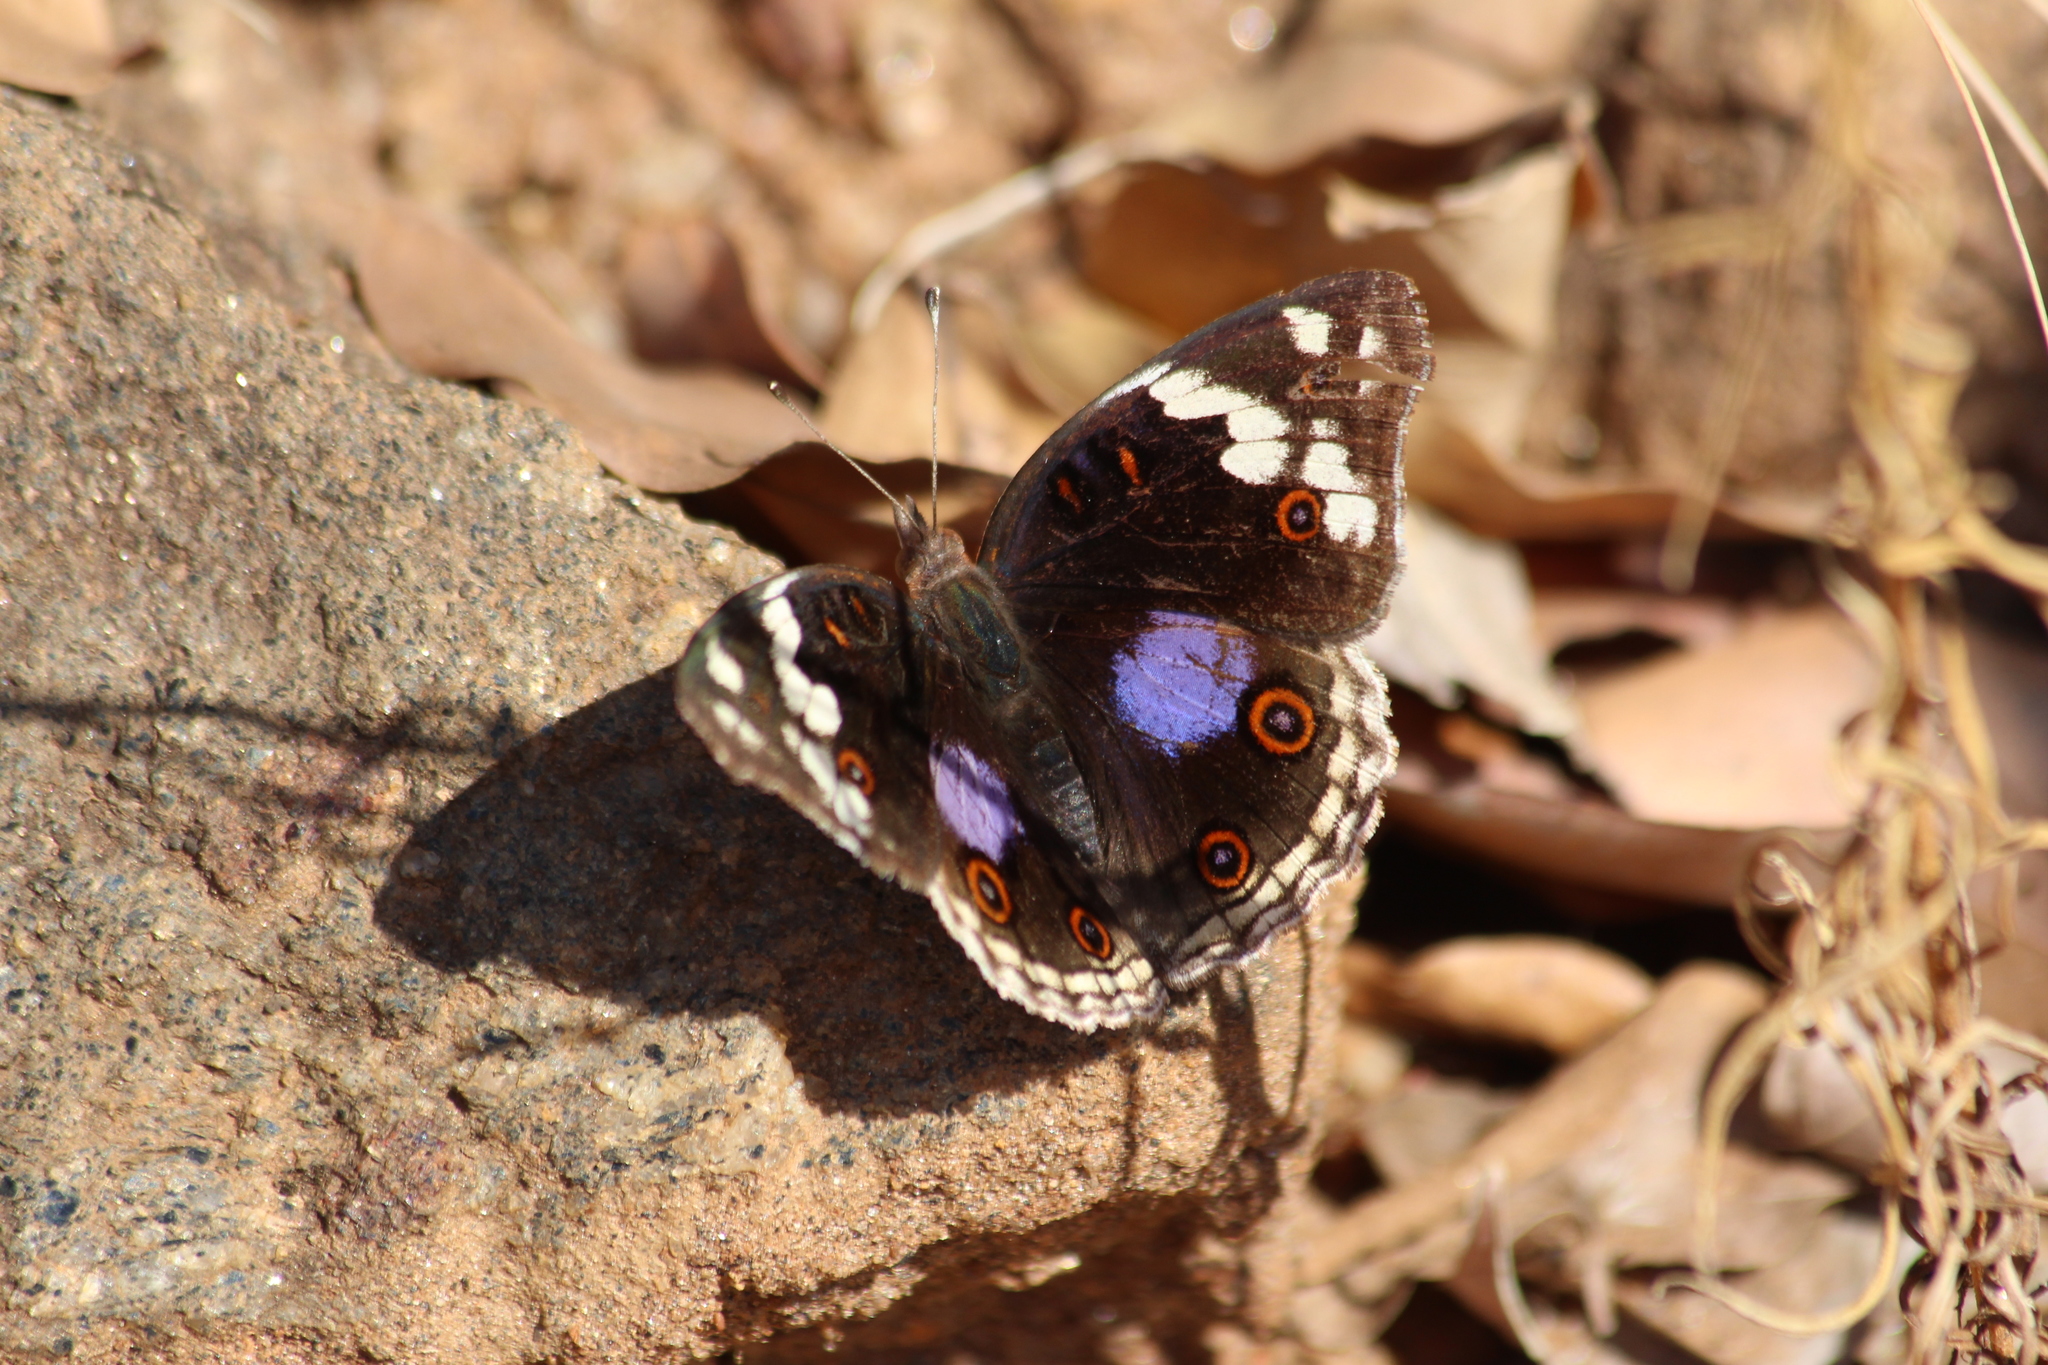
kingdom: Animalia
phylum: Arthropoda
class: Insecta
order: Lepidoptera
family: Nymphalidae
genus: Junonia
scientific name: Junonia oenone
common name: Dark blue pansy
